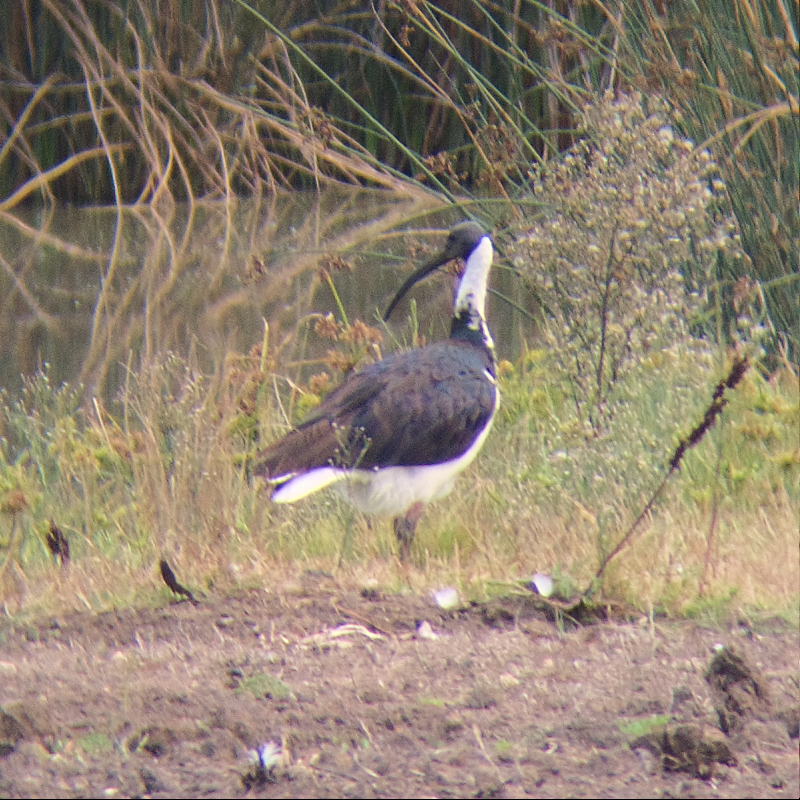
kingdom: Animalia
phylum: Chordata
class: Aves
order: Pelecaniformes
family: Threskiornithidae
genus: Threskiornis
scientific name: Threskiornis spinicollis
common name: Straw-necked ibis
